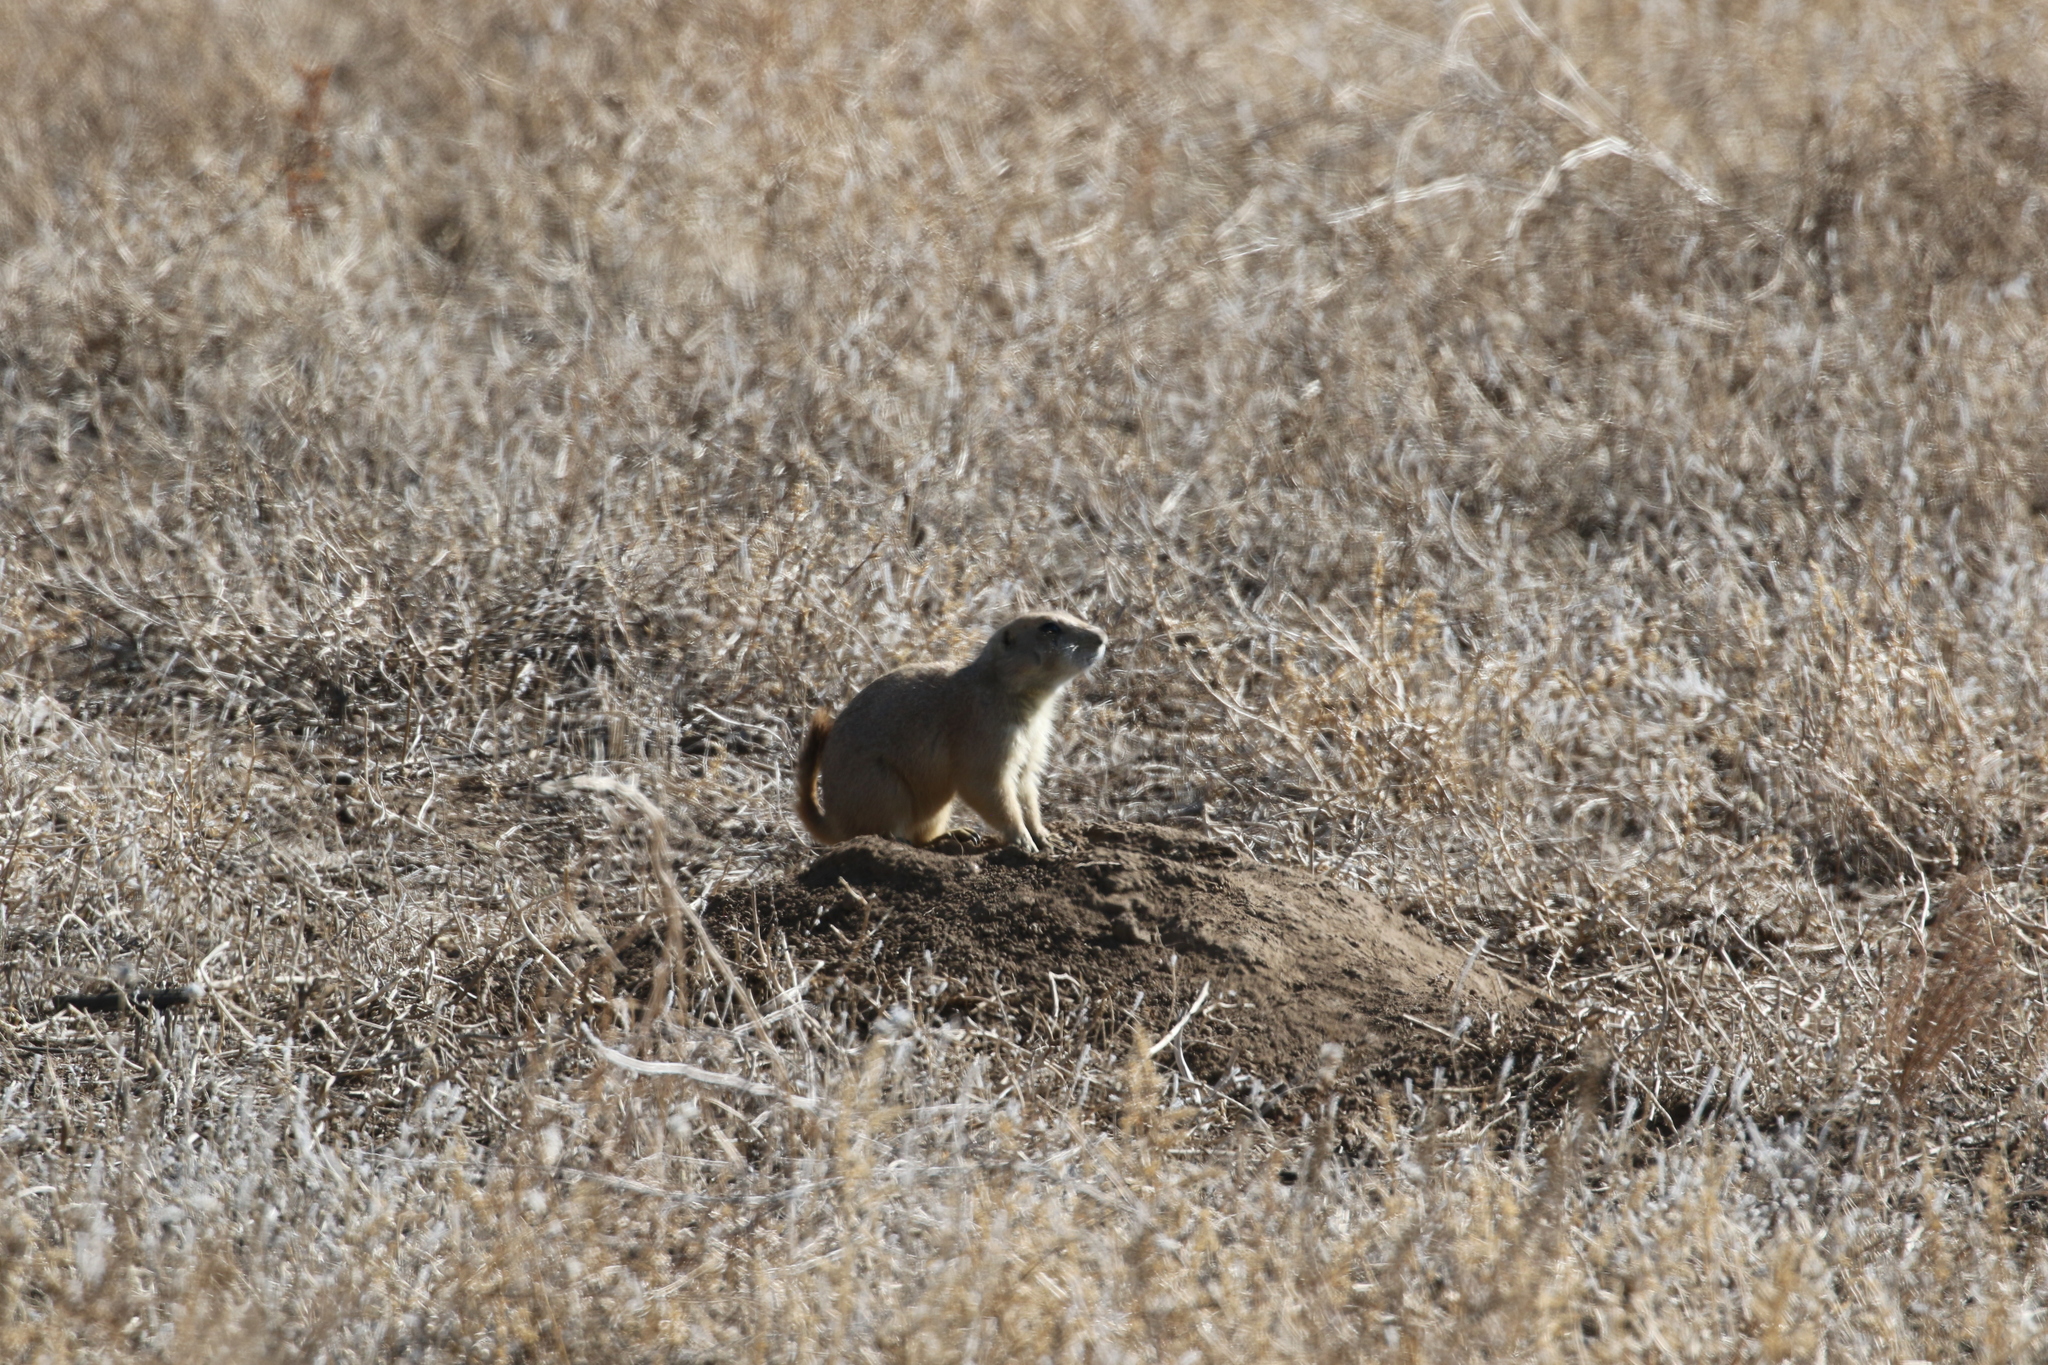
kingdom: Animalia
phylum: Chordata
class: Mammalia
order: Rodentia
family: Sciuridae
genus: Cynomys
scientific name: Cynomys ludovicianus
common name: Black-tailed prairie dog
